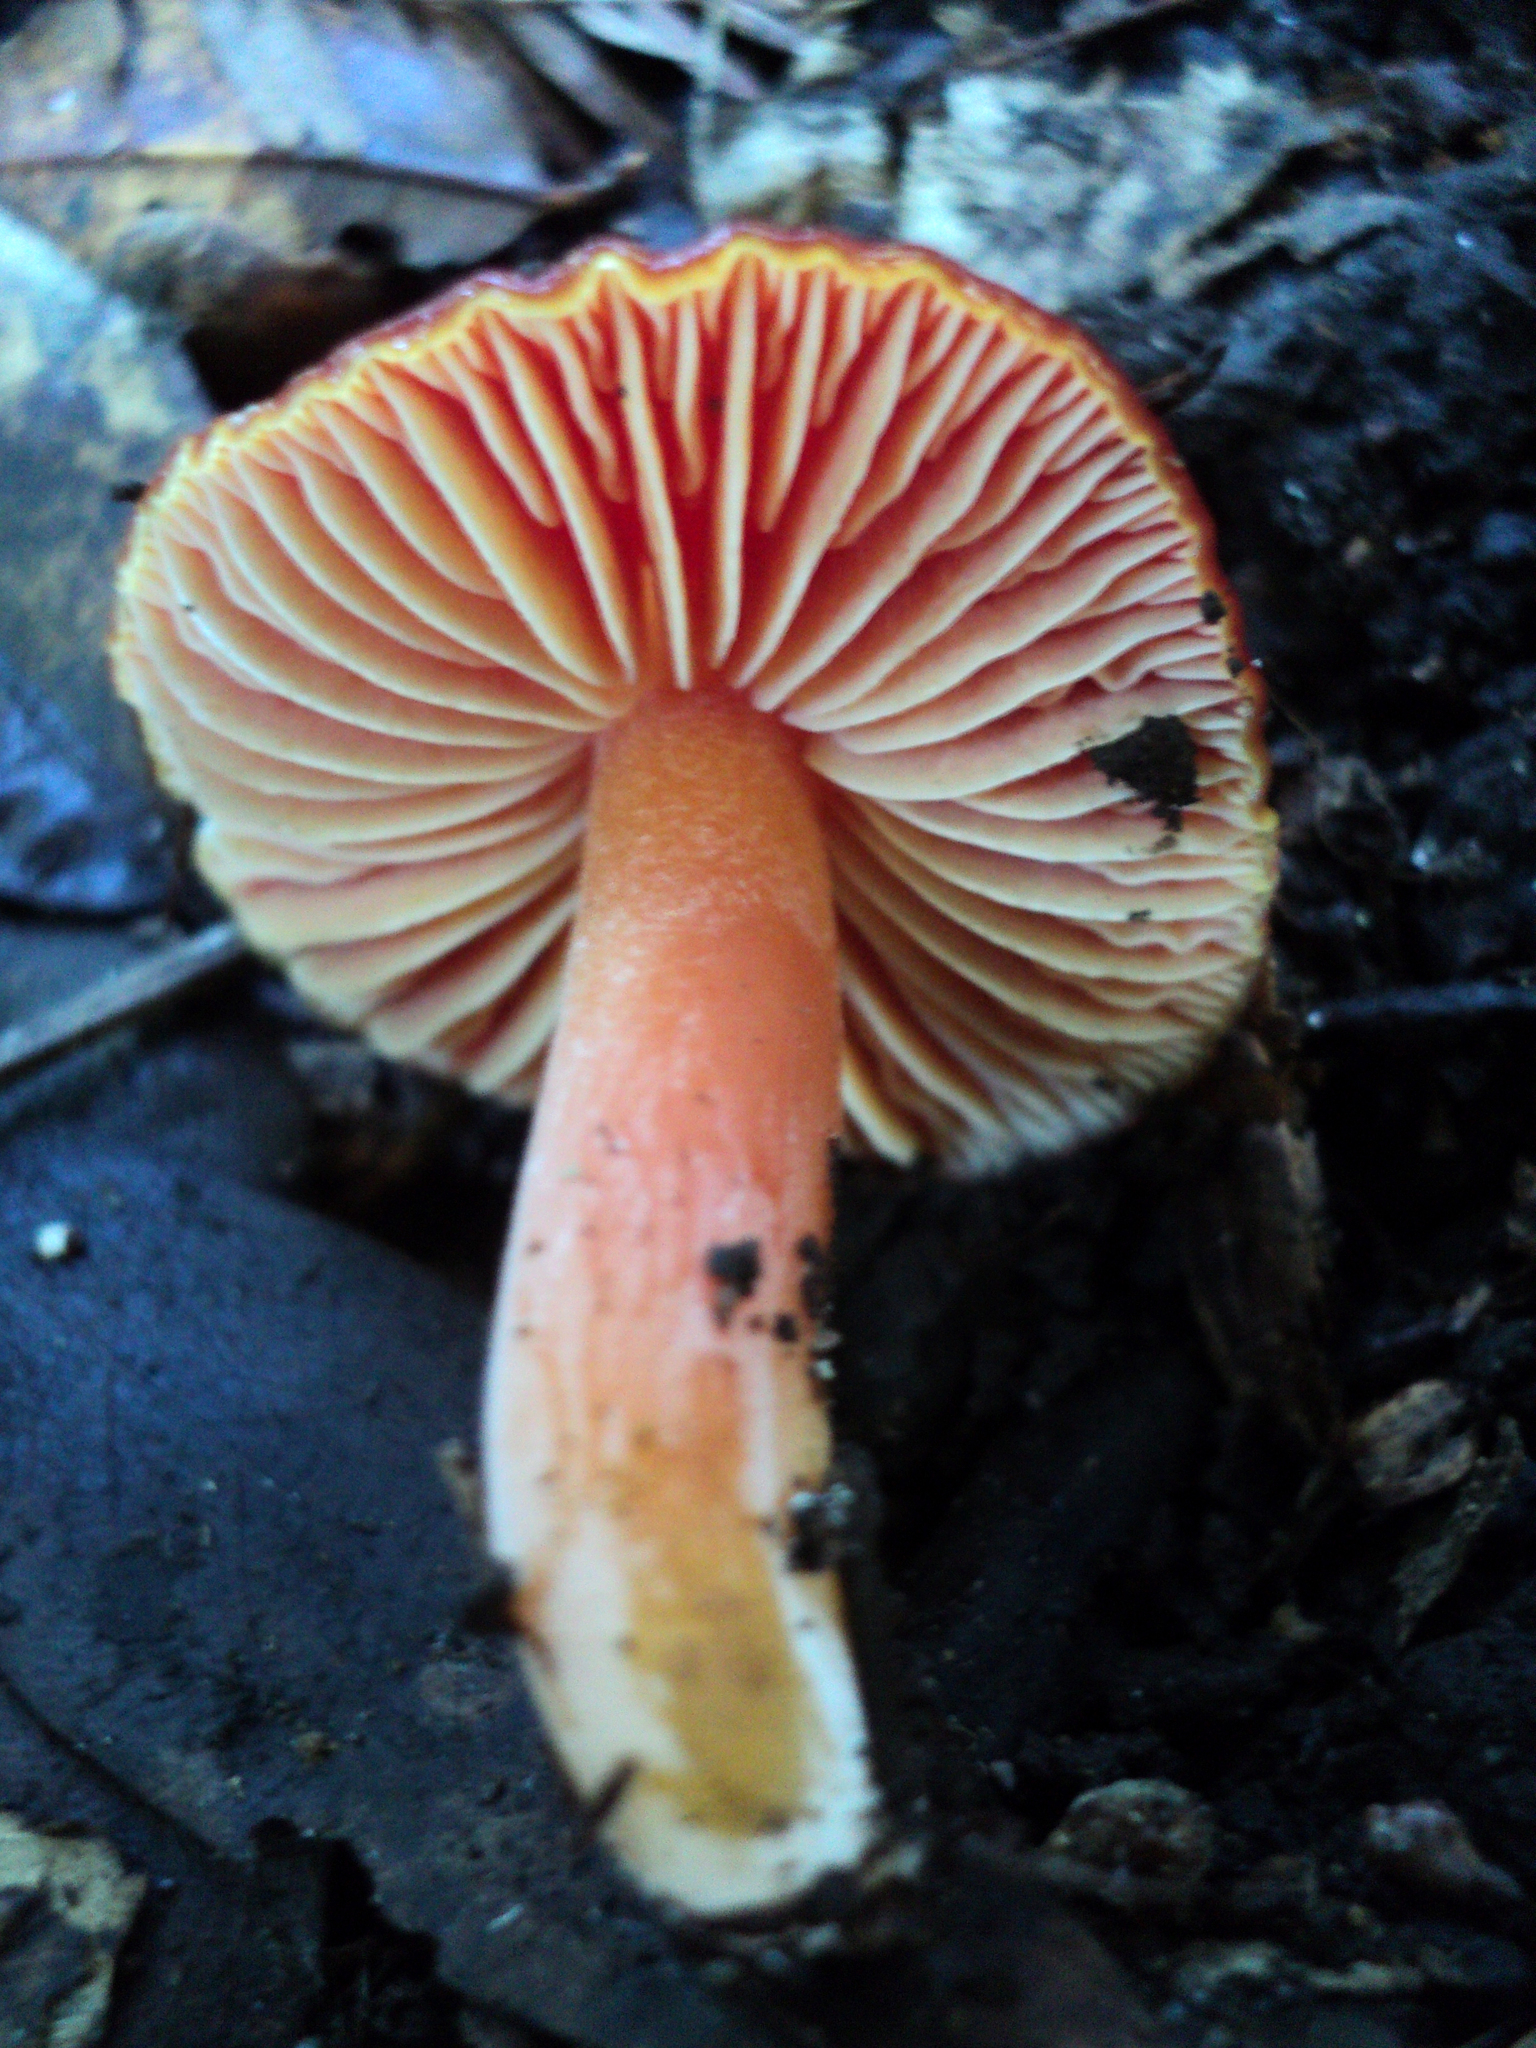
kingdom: Fungi
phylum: Basidiomycota
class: Agaricomycetes
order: Agaricales
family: Hygrophoraceae
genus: Hygrocybe
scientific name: Hygrocybe punicea
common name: Crimson waxcap
